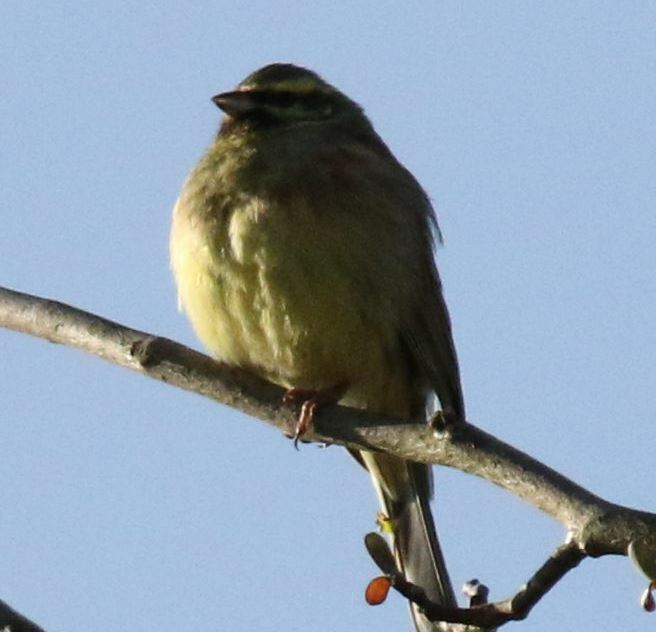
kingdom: Animalia
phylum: Chordata
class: Aves
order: Passeriformes
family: Emberizidae
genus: Emberiza
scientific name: Emberiza cirlus
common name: Cirl bunting
